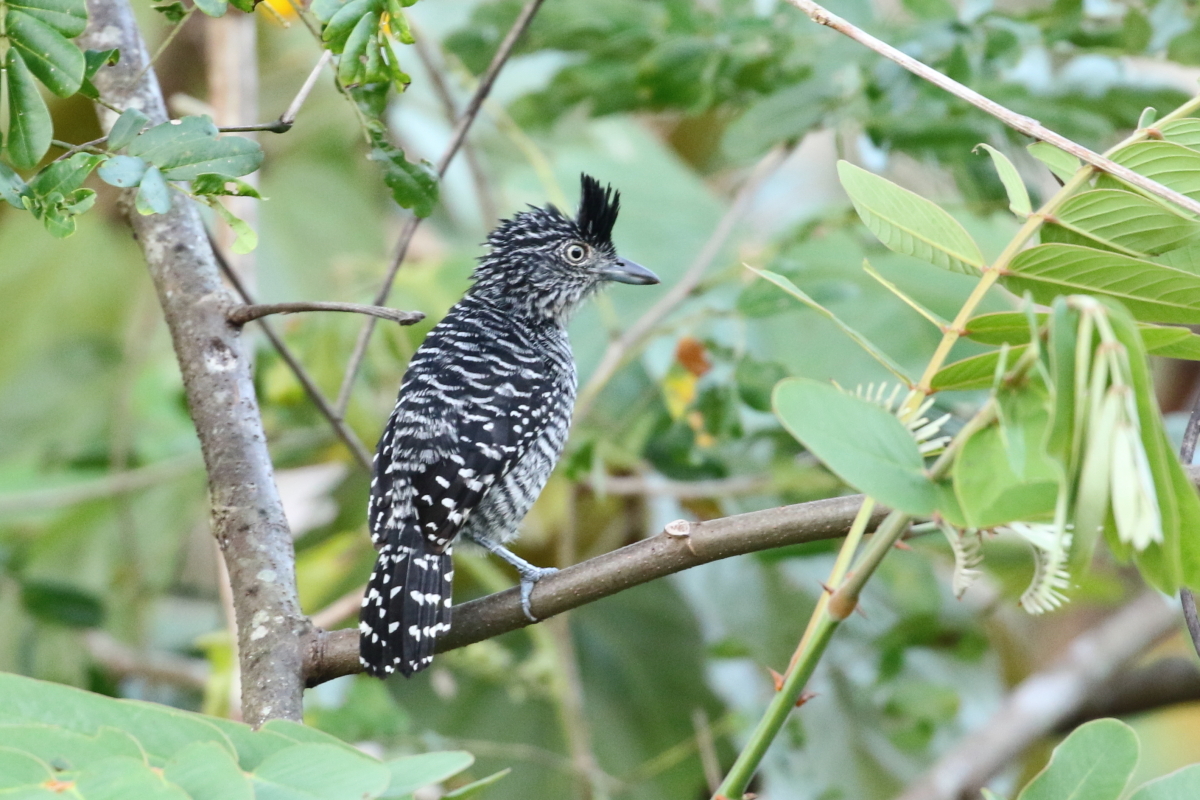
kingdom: Animalia
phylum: Chordata
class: Aves
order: Passeriformes
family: Thamnophilidae
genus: Thamnophilus
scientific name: Thamnophilus doliatus
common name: Barred antshrike
